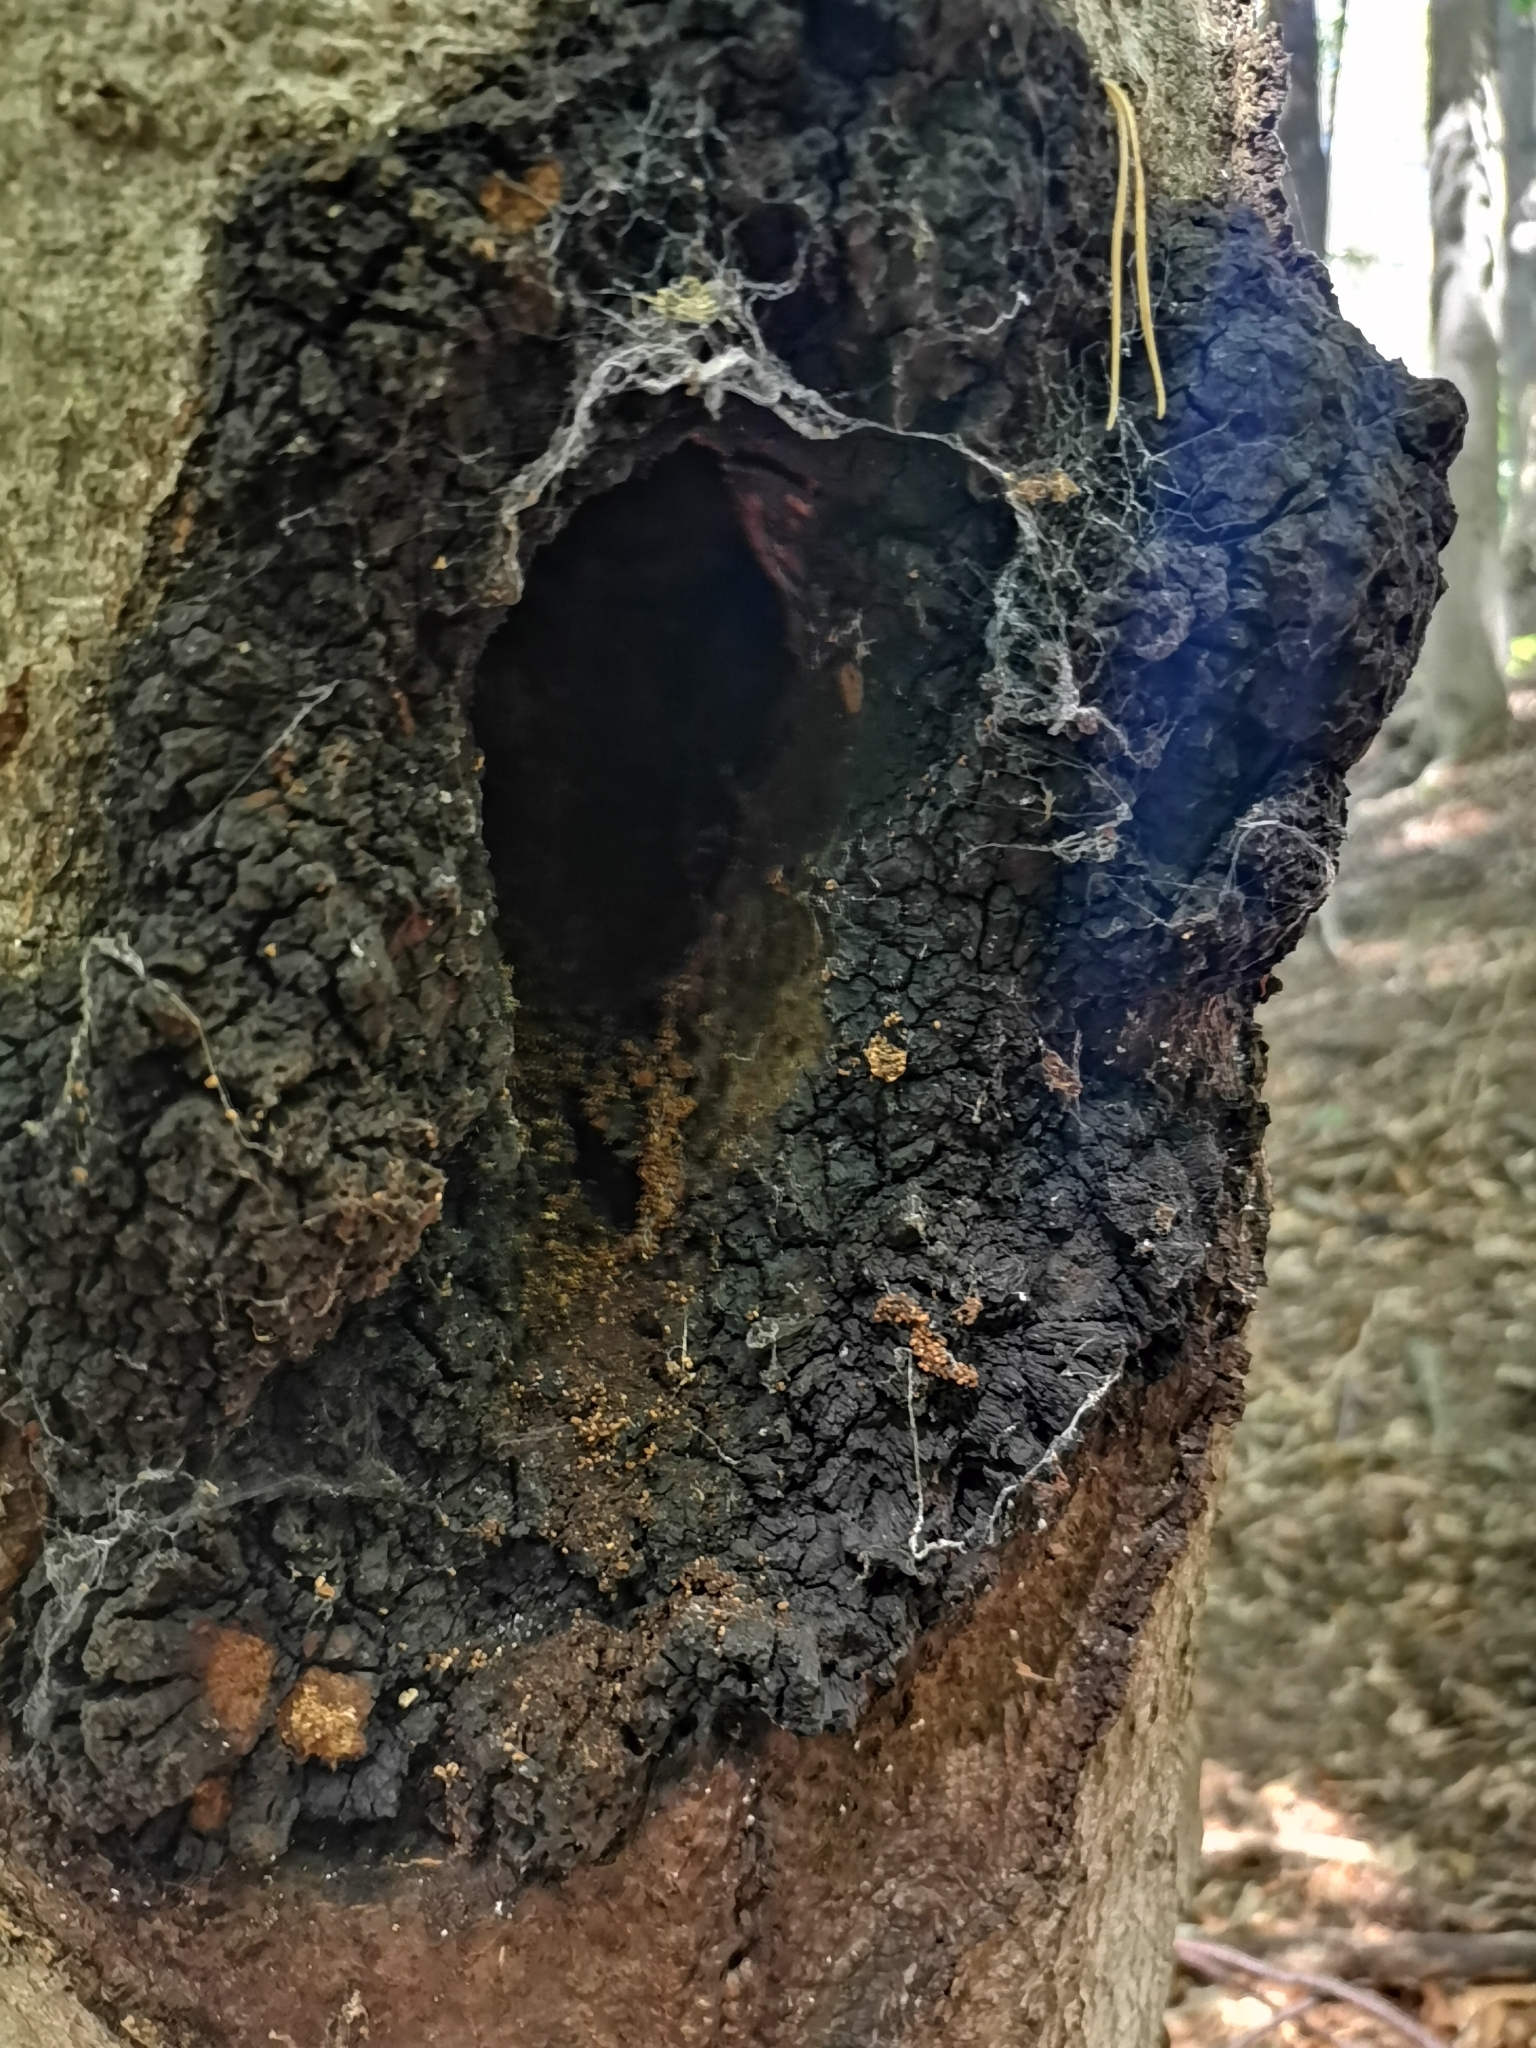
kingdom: Fungi
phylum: Basidiomycota
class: Agaricomycetes
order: Hymenochaetales
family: Hymenochaetaceae
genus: Inonotus
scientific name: Inonotus obliquus
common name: Chaga
